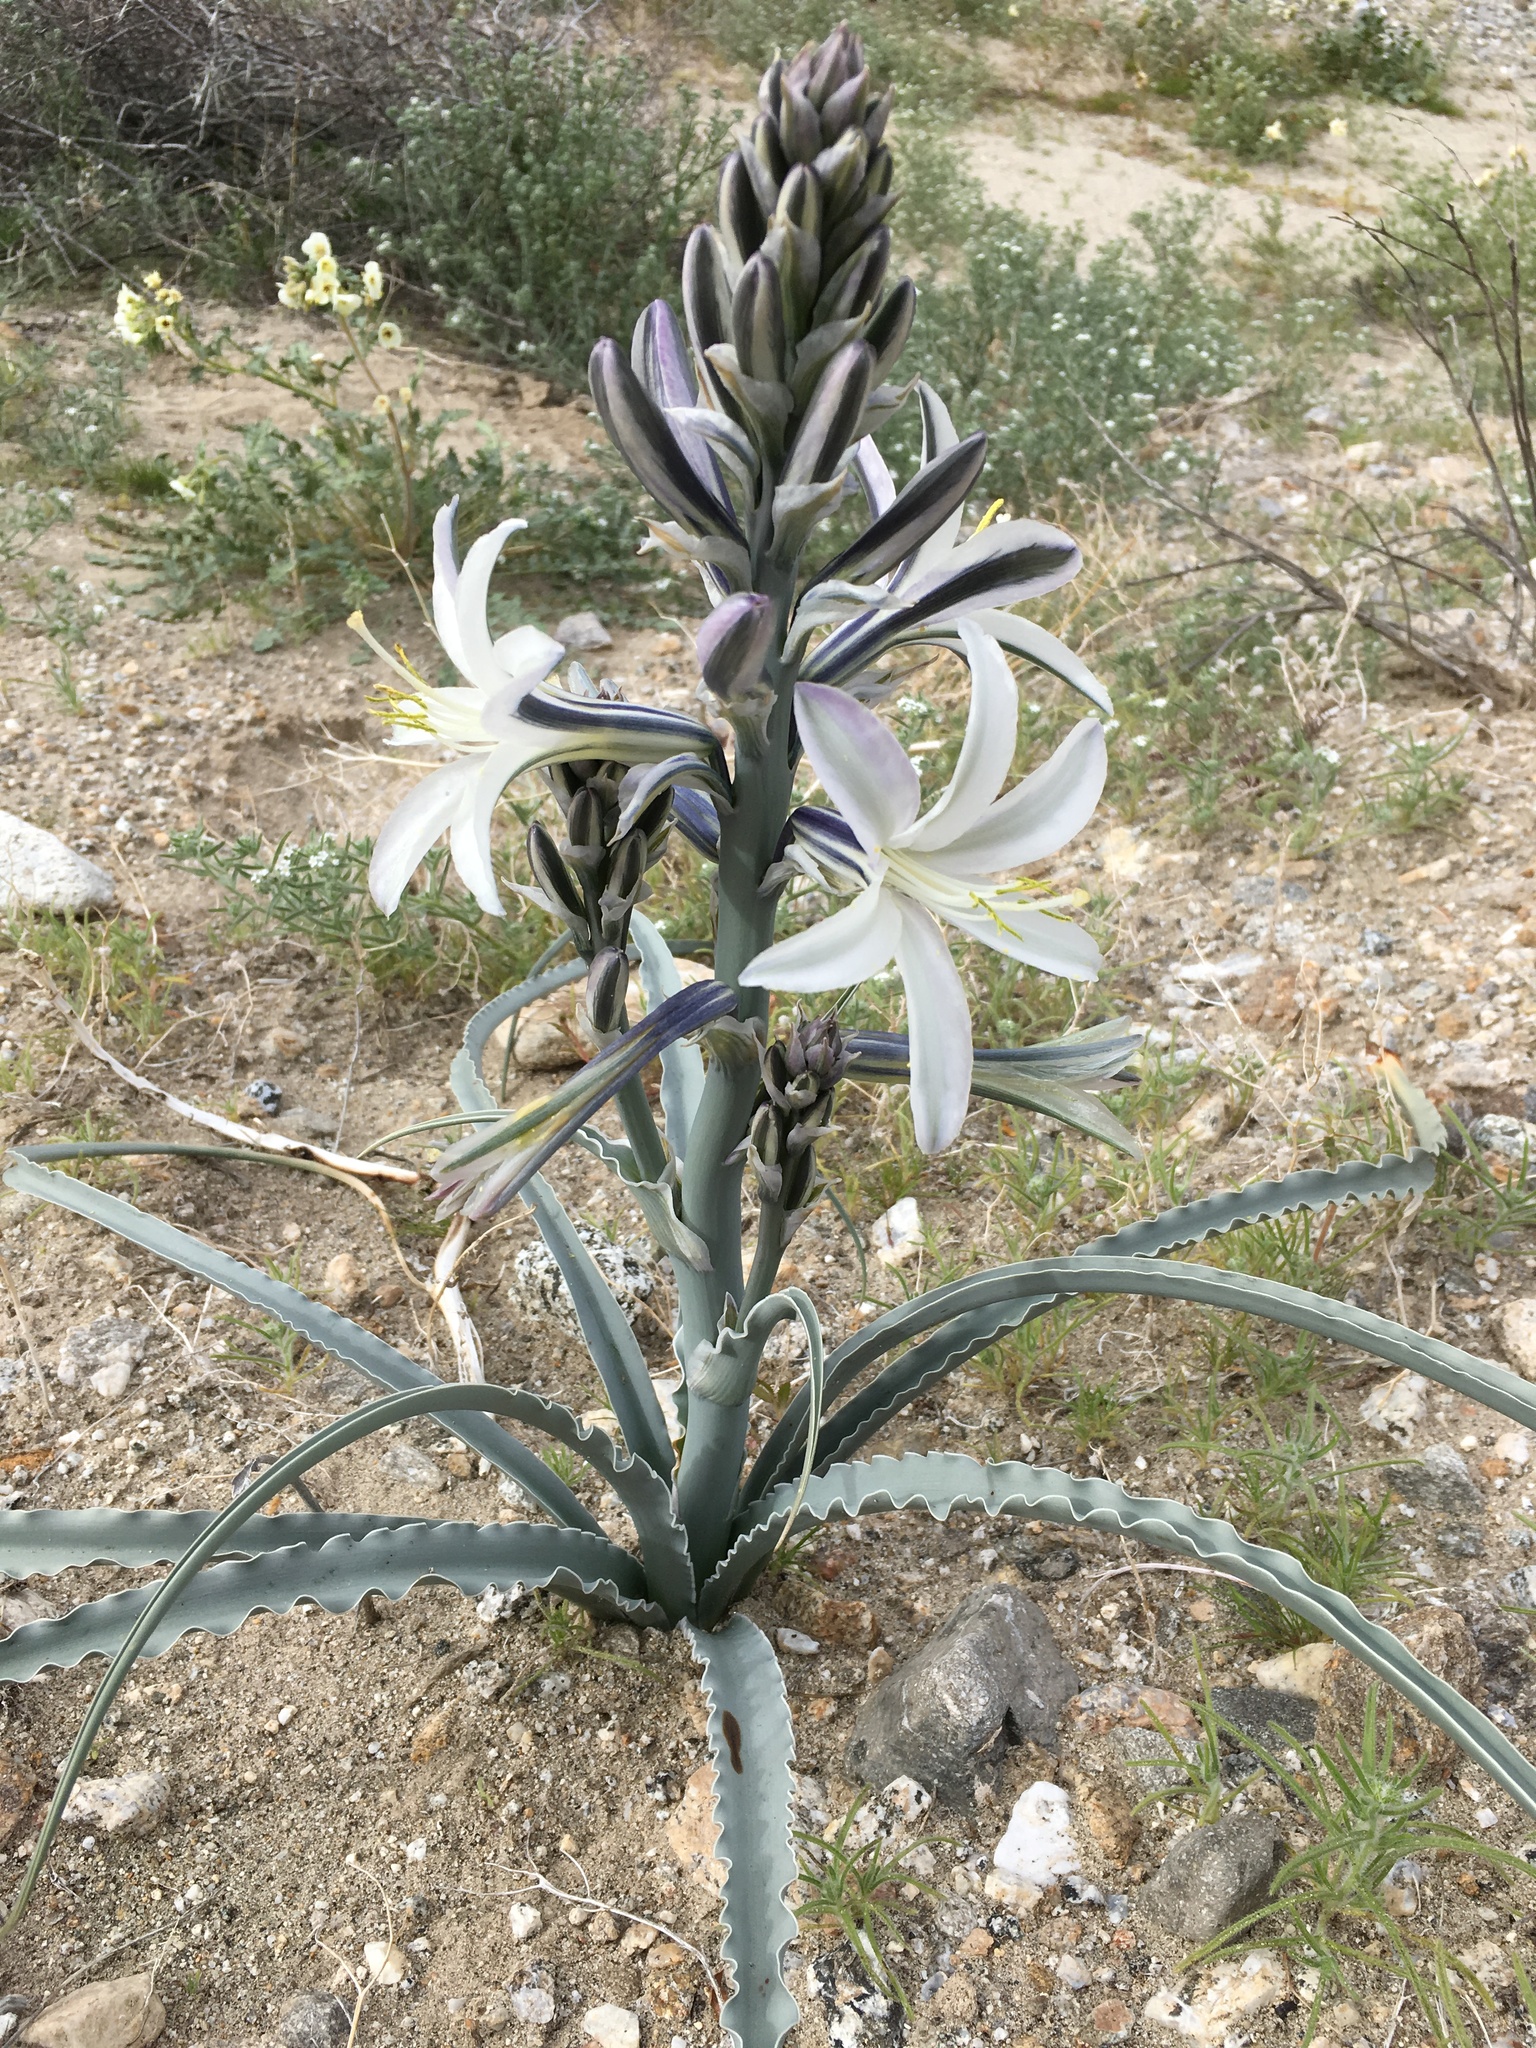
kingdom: Plantae
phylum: Tracheophyta
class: Liliopsida
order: Asparagales
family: Asparagaceae
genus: Hesperocallis
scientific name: Hesperocallis undulata
